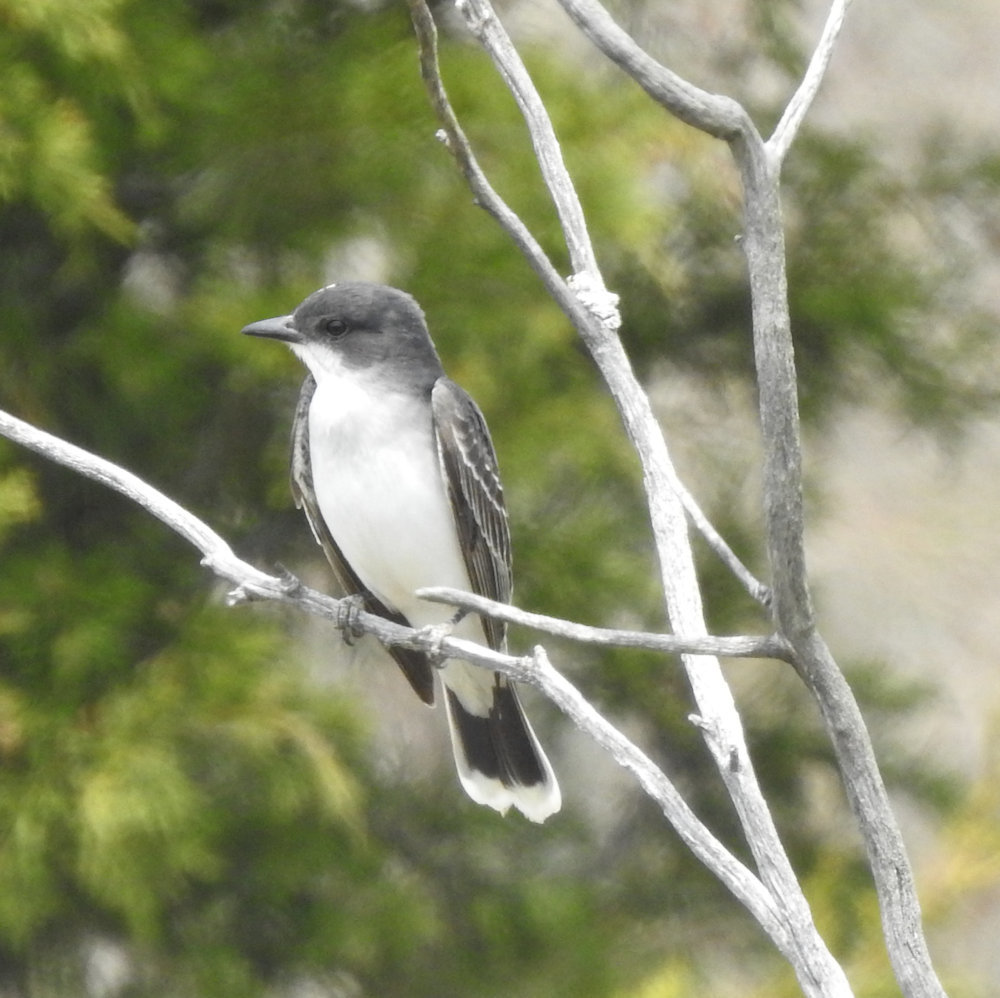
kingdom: Animalia
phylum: Chordata
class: Aves
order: Passeriformes
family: Tyrannidae
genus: Tyrannus
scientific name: Tyrannus tyrannus
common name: Eastern kingbird
